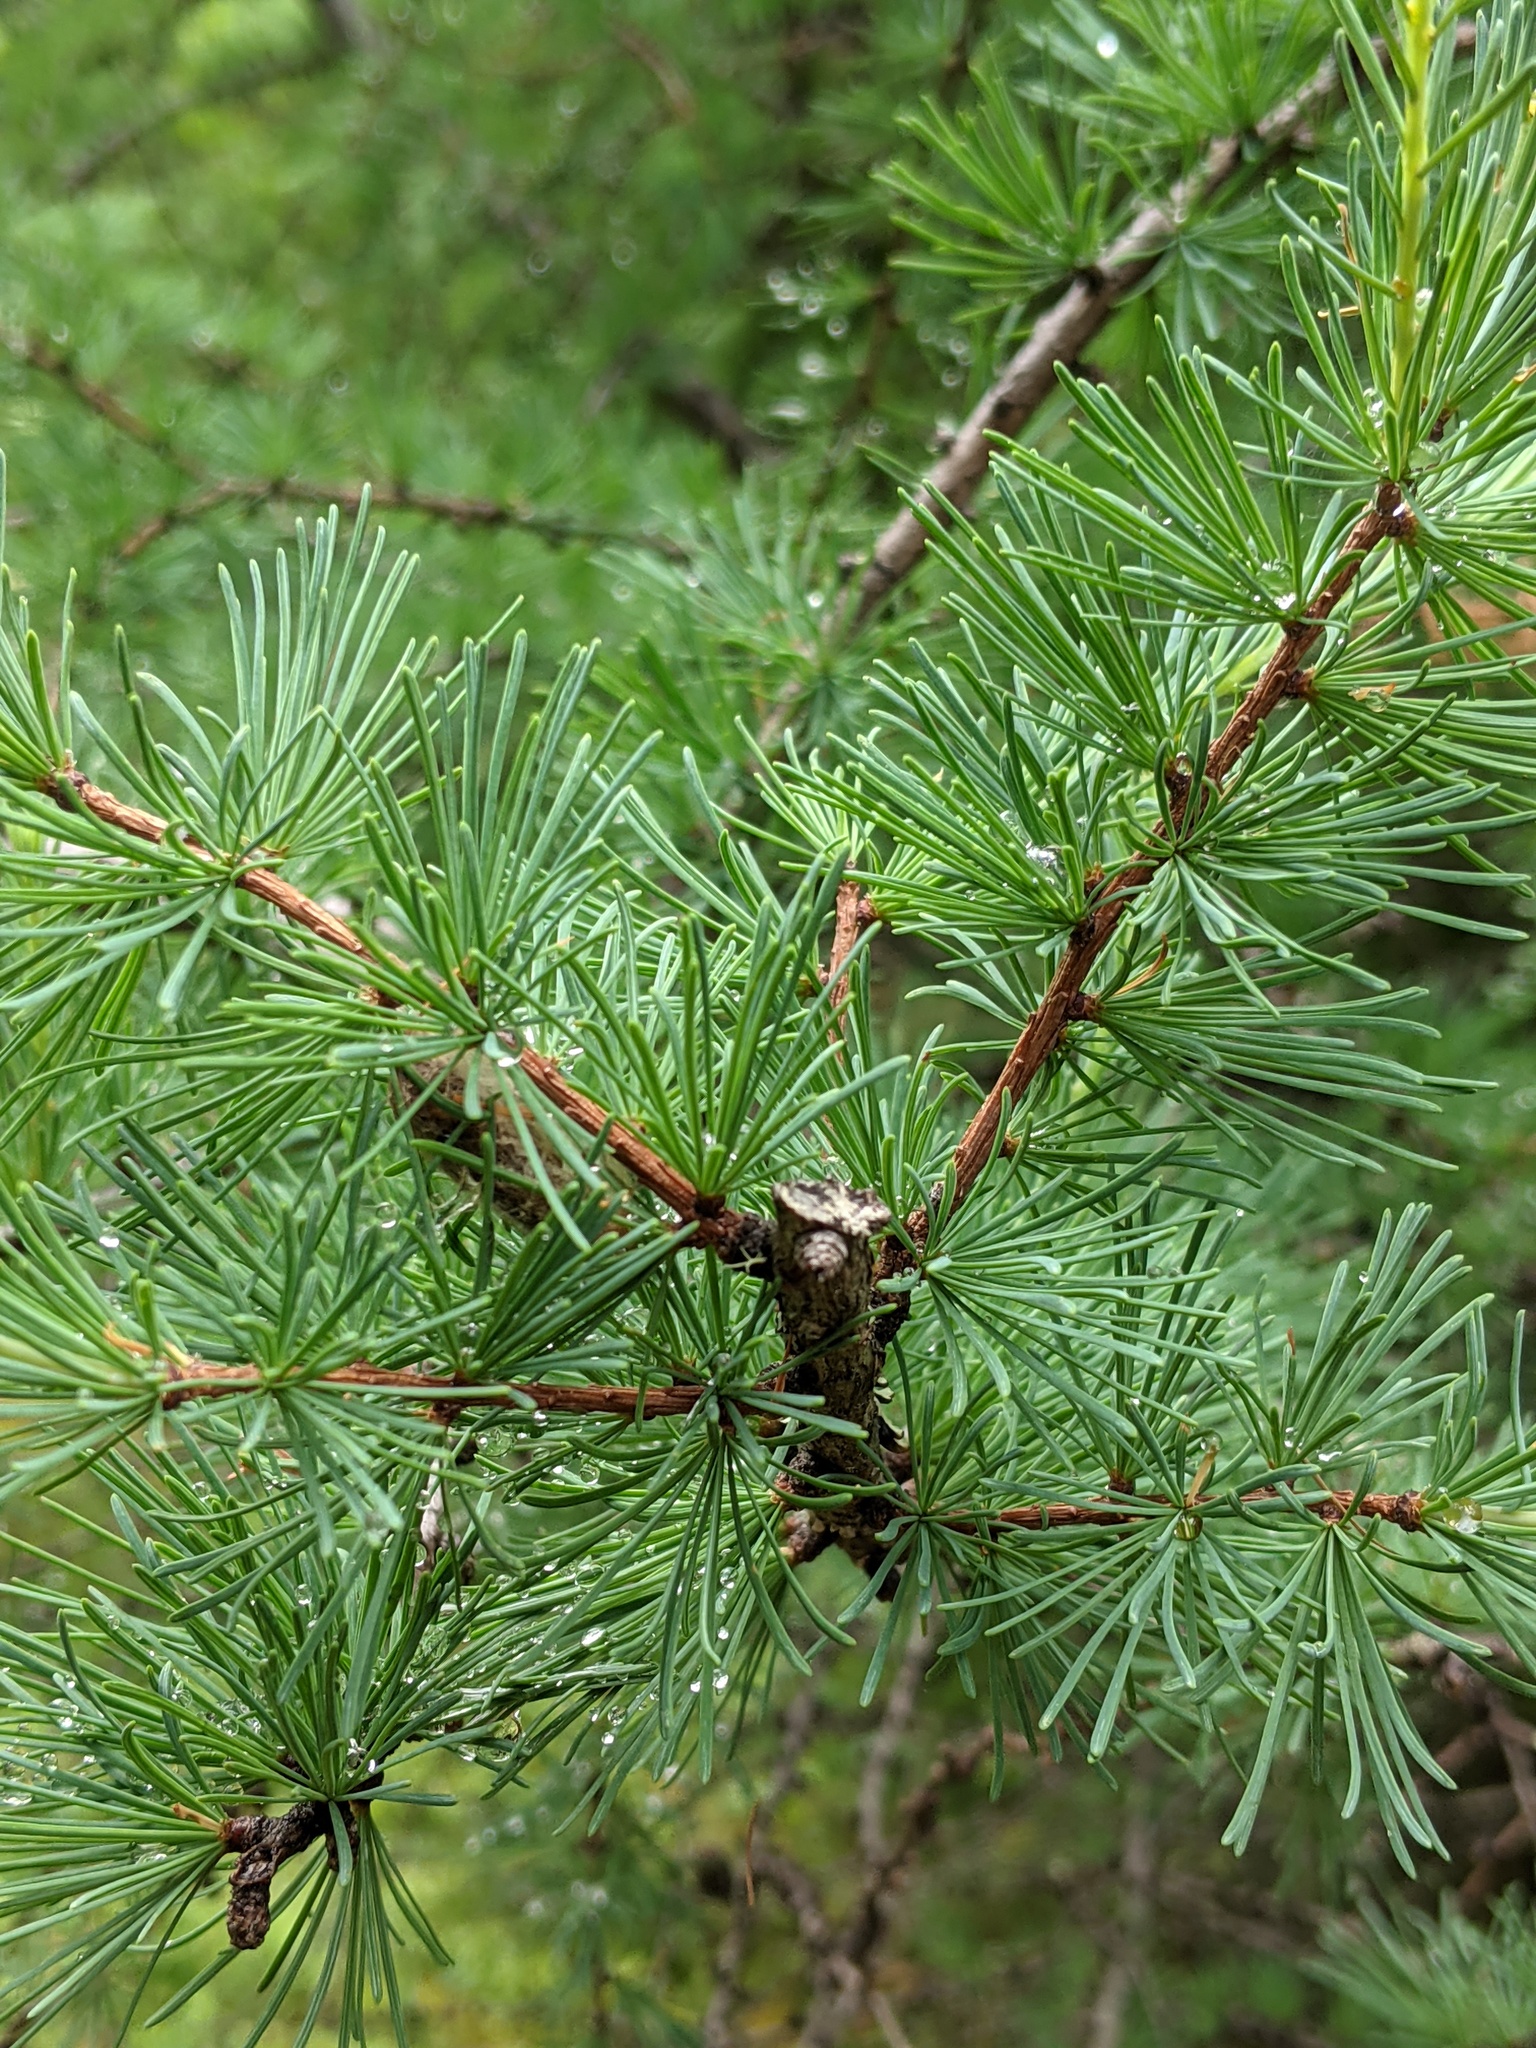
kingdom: Plantae
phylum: Tracheophyta
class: Pinopsida
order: Pinales
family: Pinaceae
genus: Larix
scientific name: Larix laricina
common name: American larch
